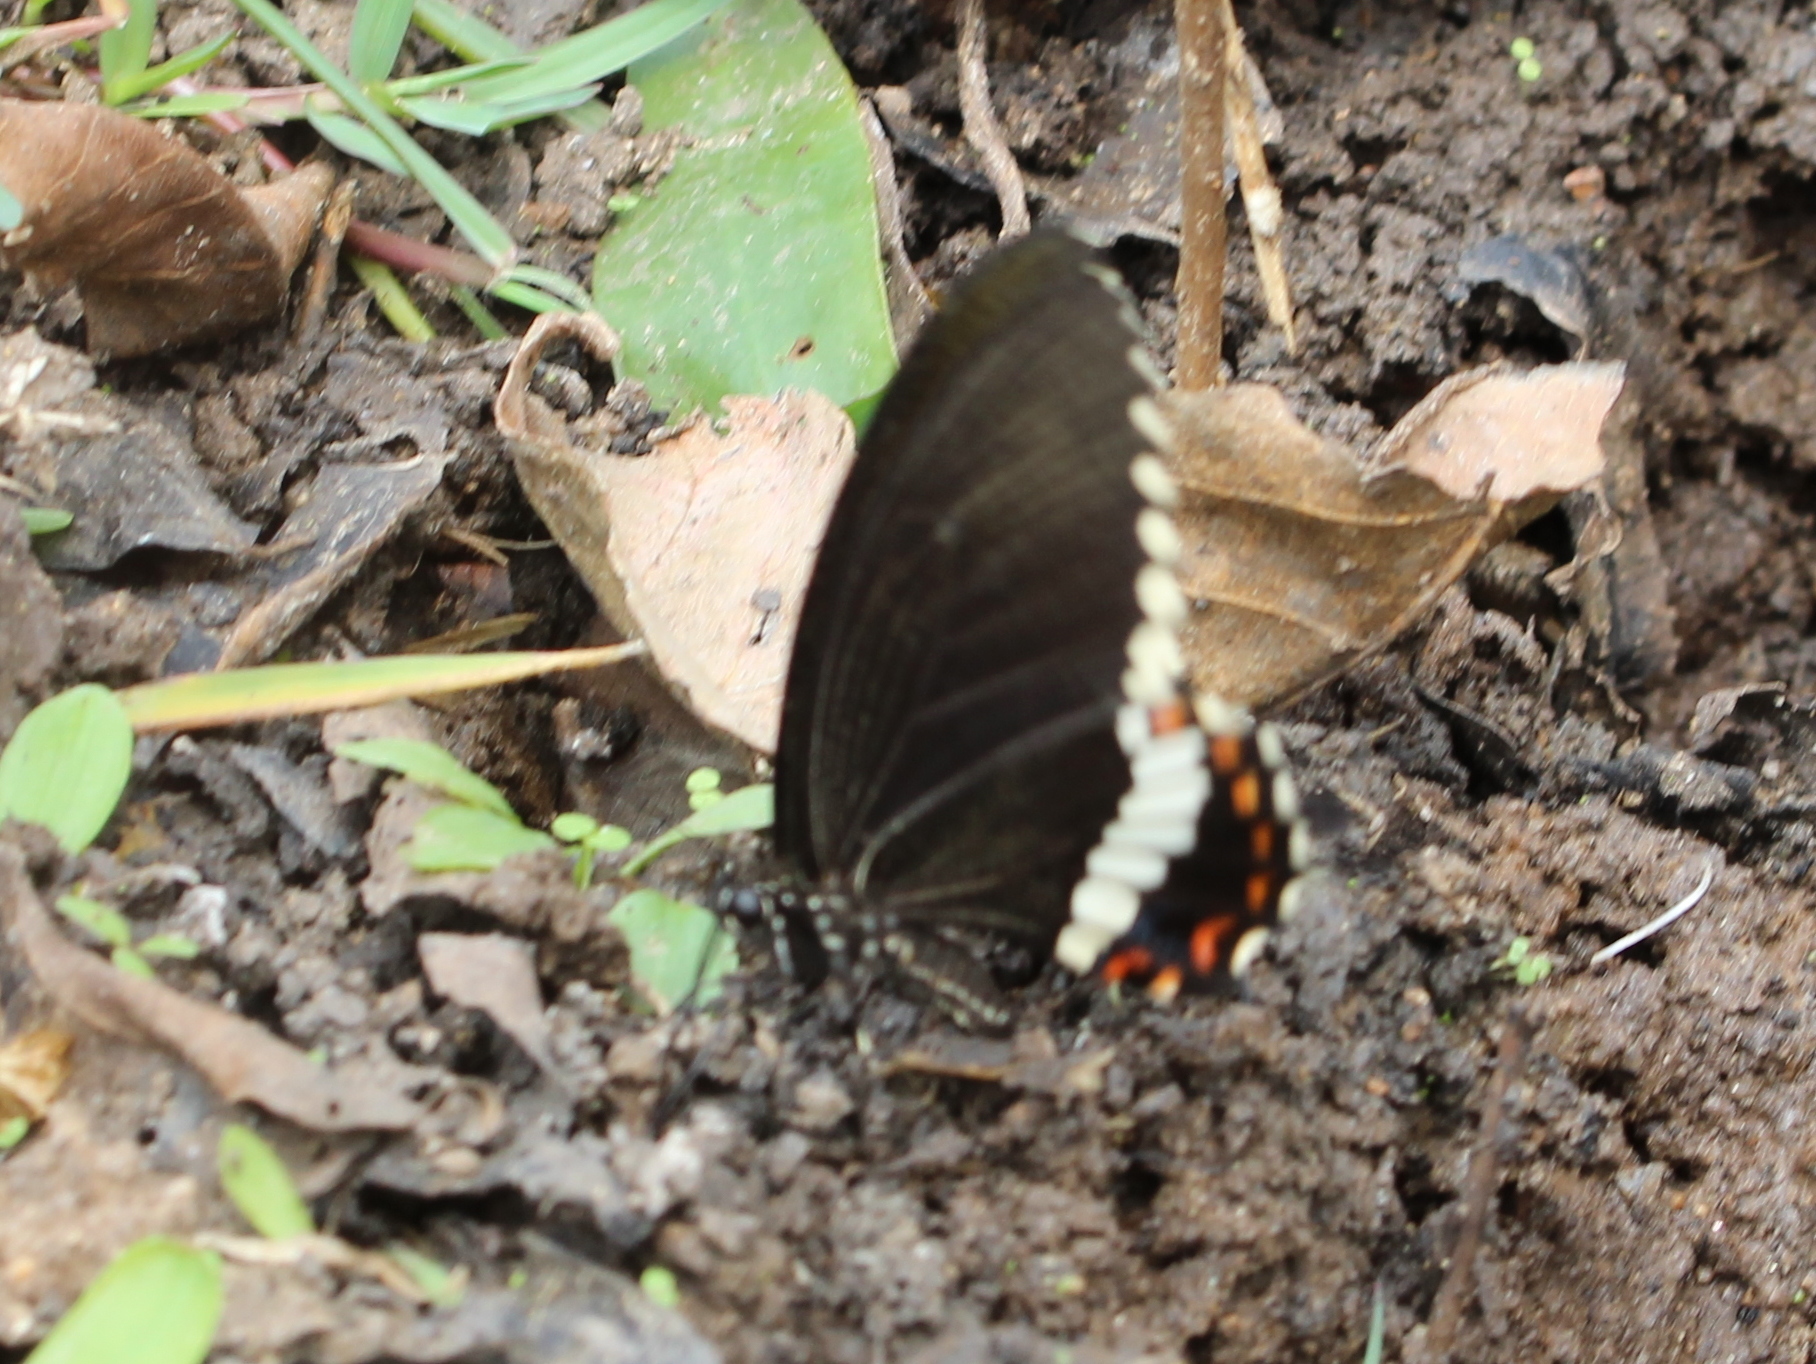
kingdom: Animalia
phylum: Arthropoda
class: Insecta
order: Lepidoptera
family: Papilionidae
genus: Papilio
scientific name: Papilio polytes
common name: Common mormon
